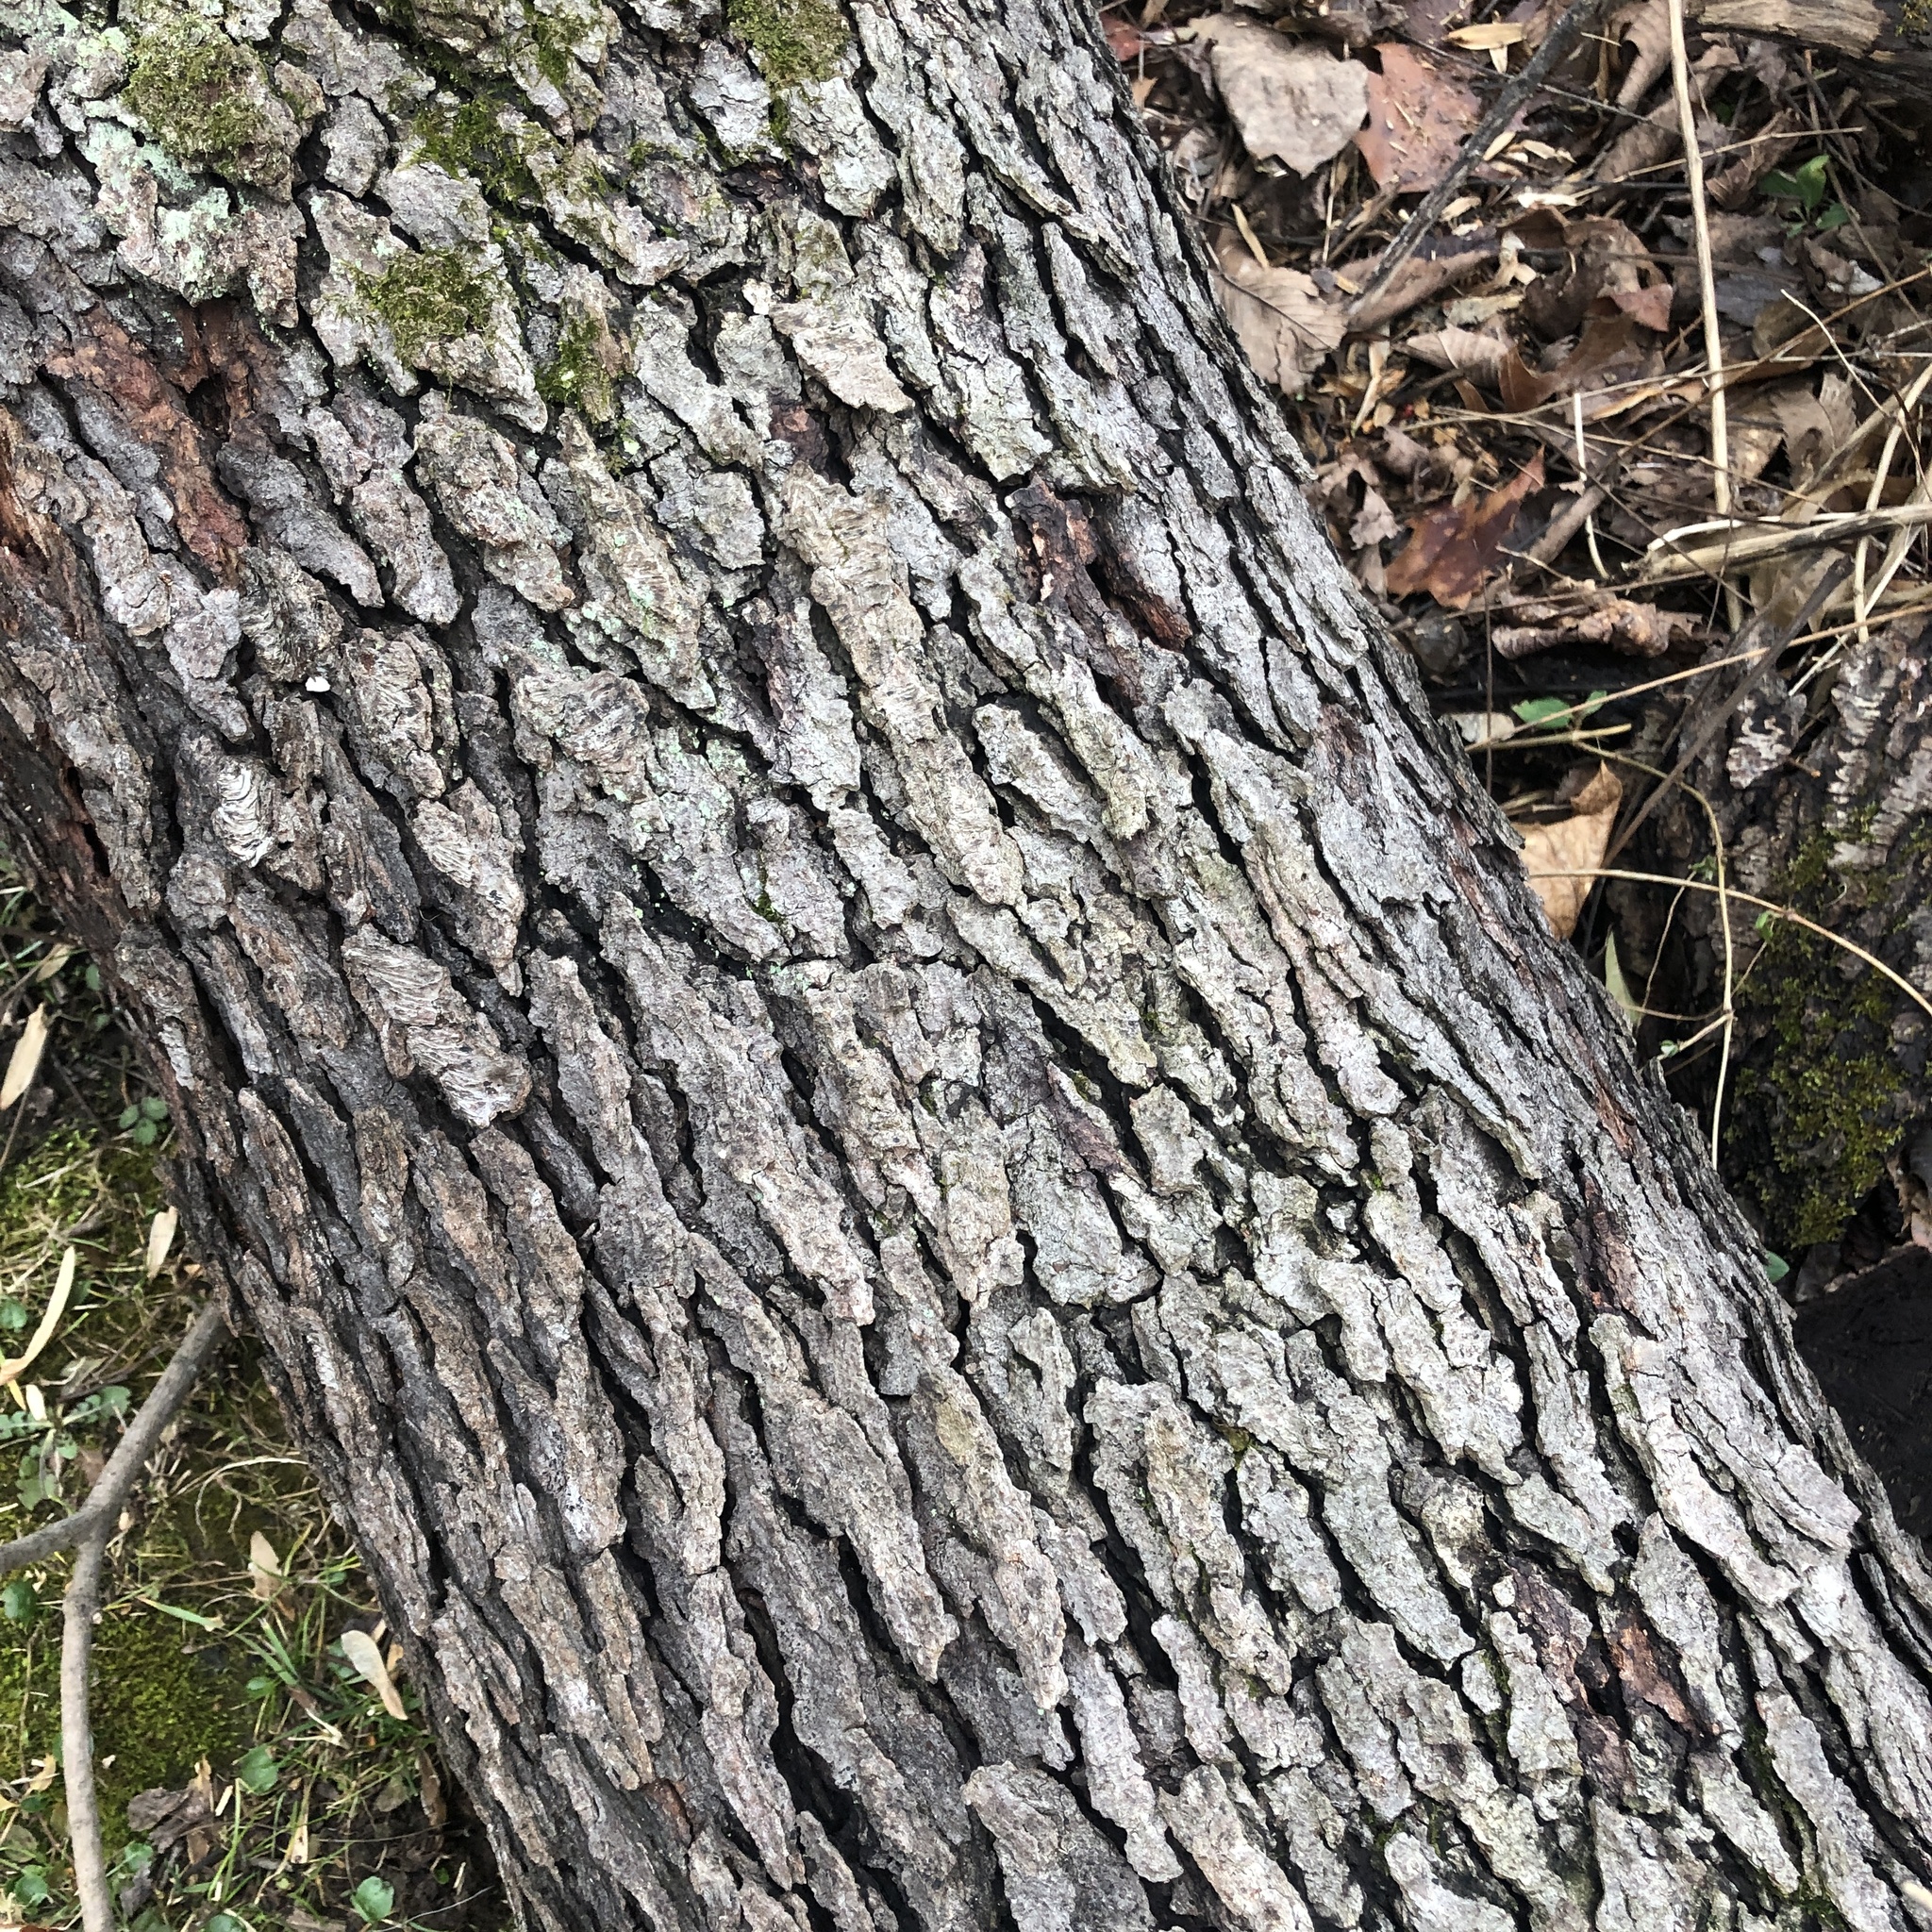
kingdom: Plantae
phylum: Tracheophyta
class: Magnoliopsida
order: Rosales
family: Rosaceae
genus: Prunus
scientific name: Prunus serotina
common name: Black cherry
